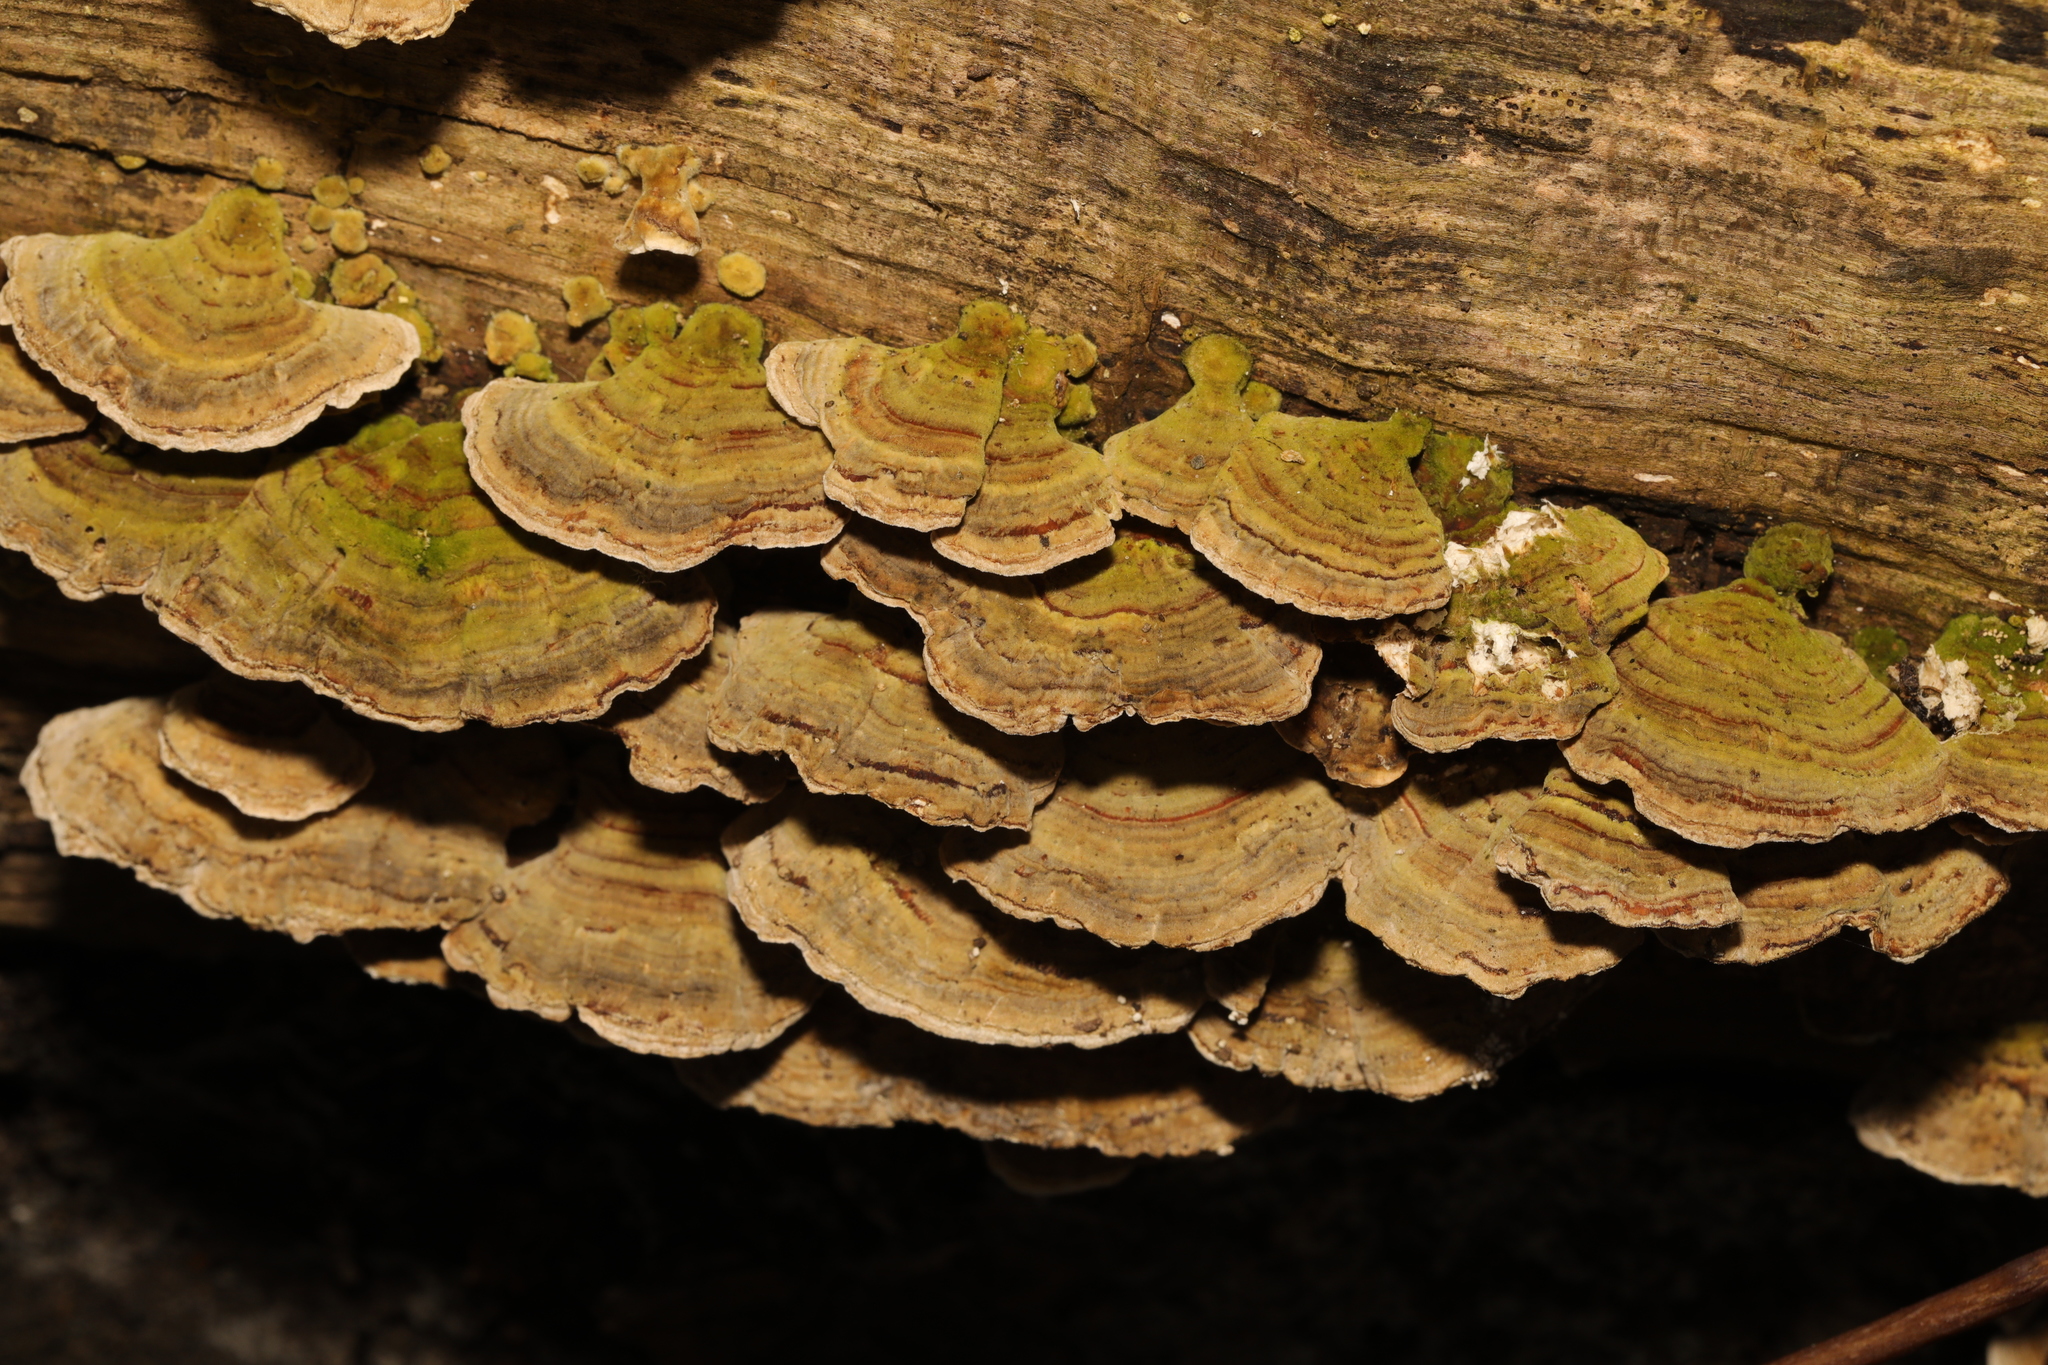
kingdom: Fungi
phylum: Basidiomycota
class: Agaricomycetes
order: Polyporales
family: Polyporaceae
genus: Trametes
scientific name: Trametes versicolor
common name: Turkeytail
